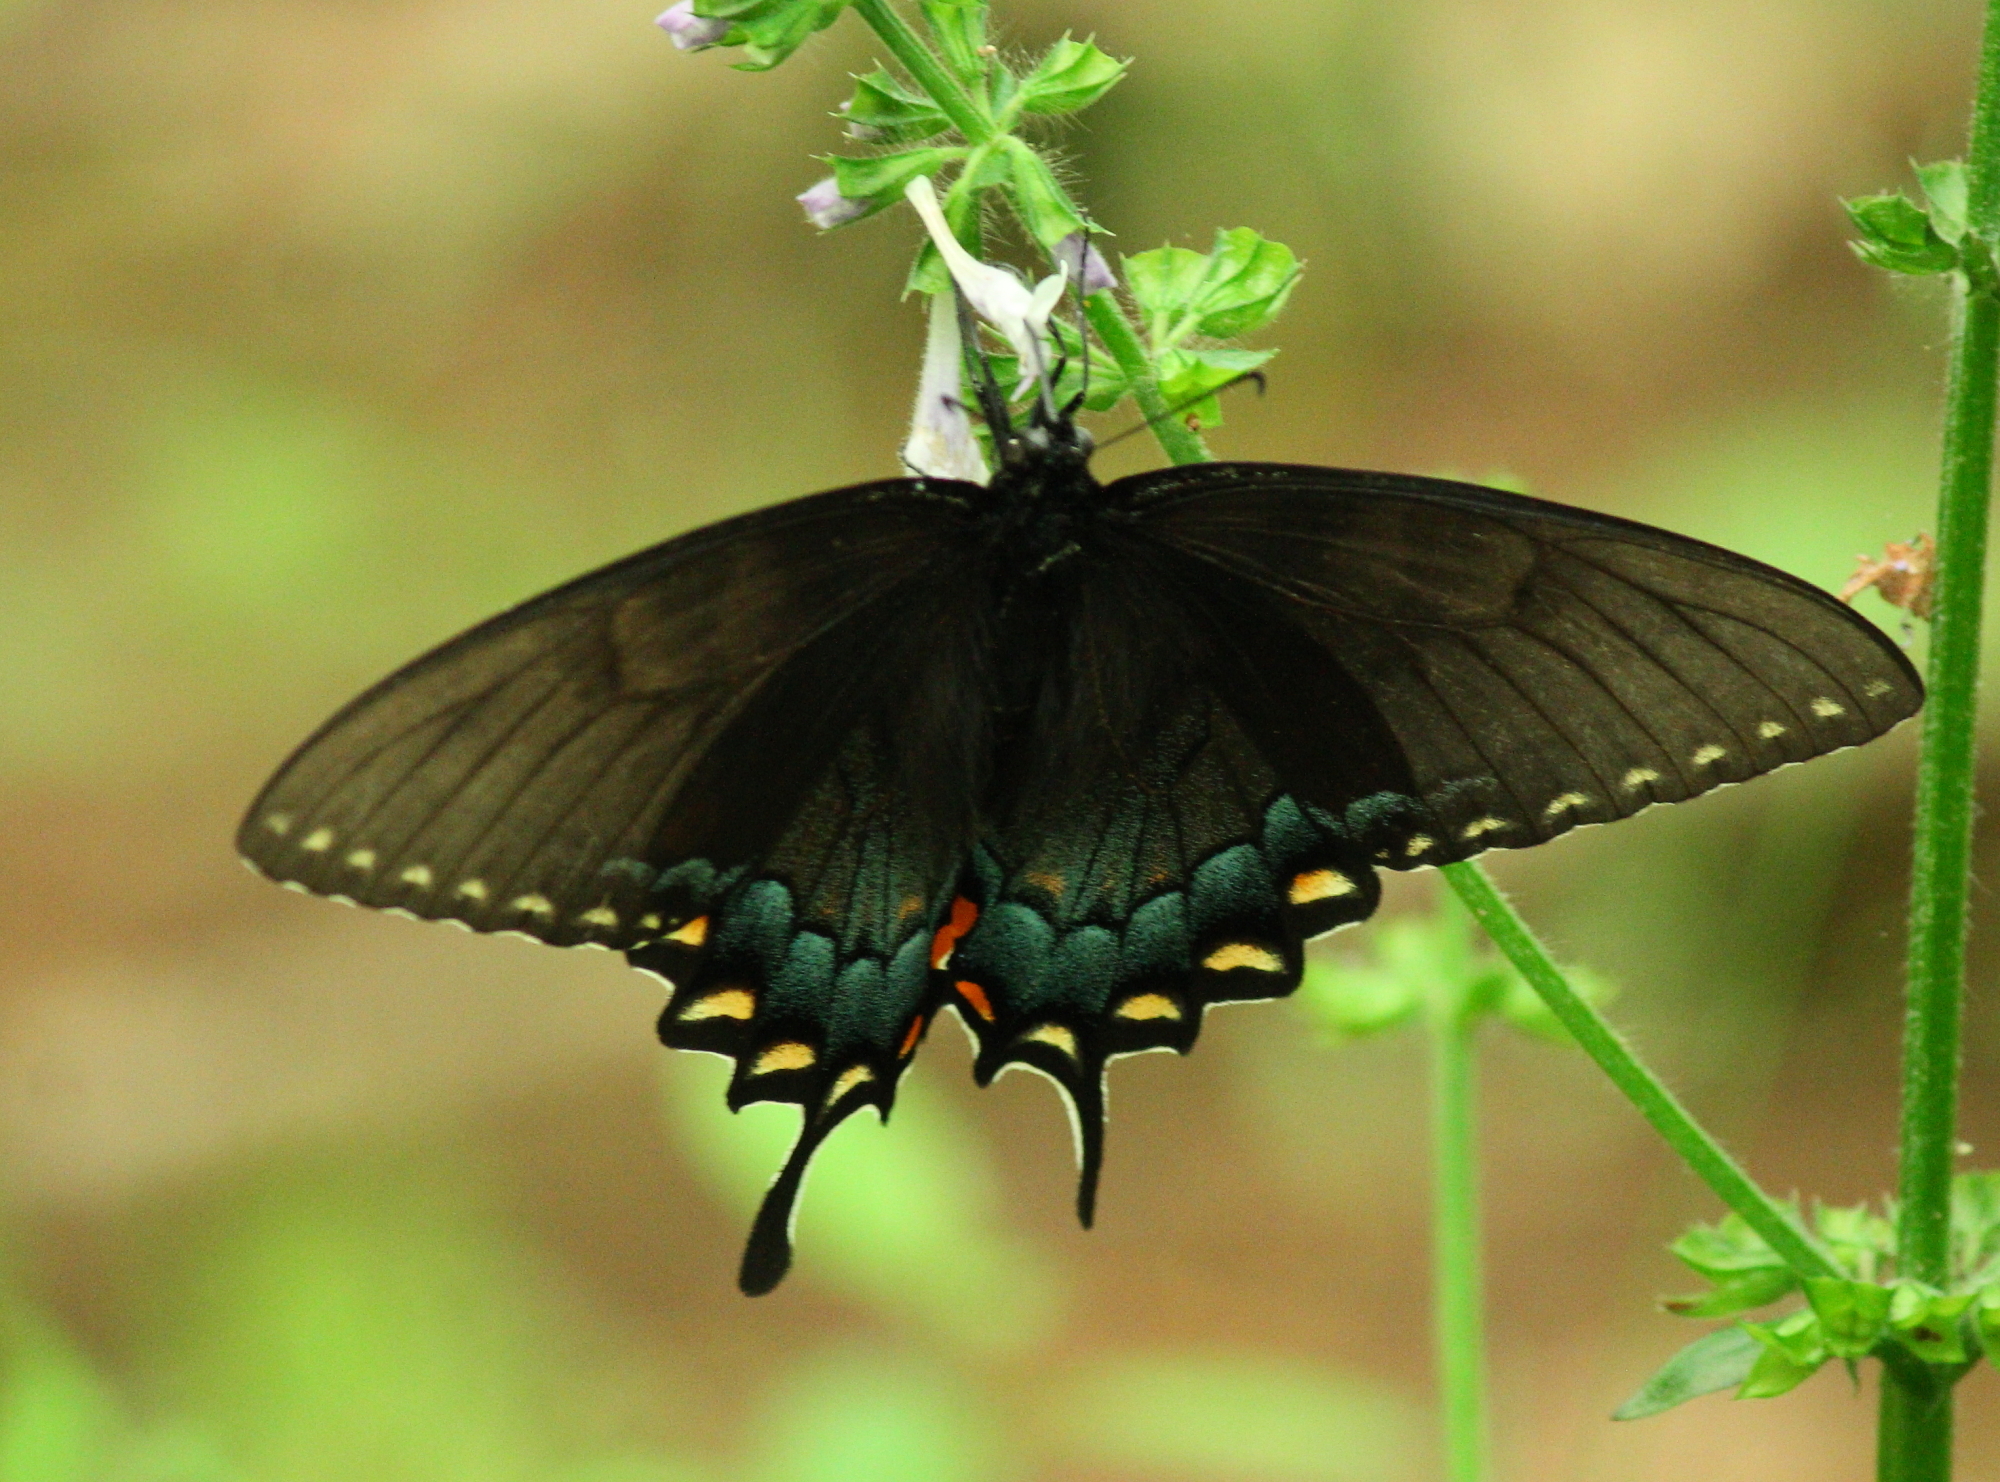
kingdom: Animalia
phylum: Arthropoda
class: Insecta
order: Lepidoptera
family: Papilionidae
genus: Papilio
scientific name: Papilio glaucus
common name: Tiger swallowtail
